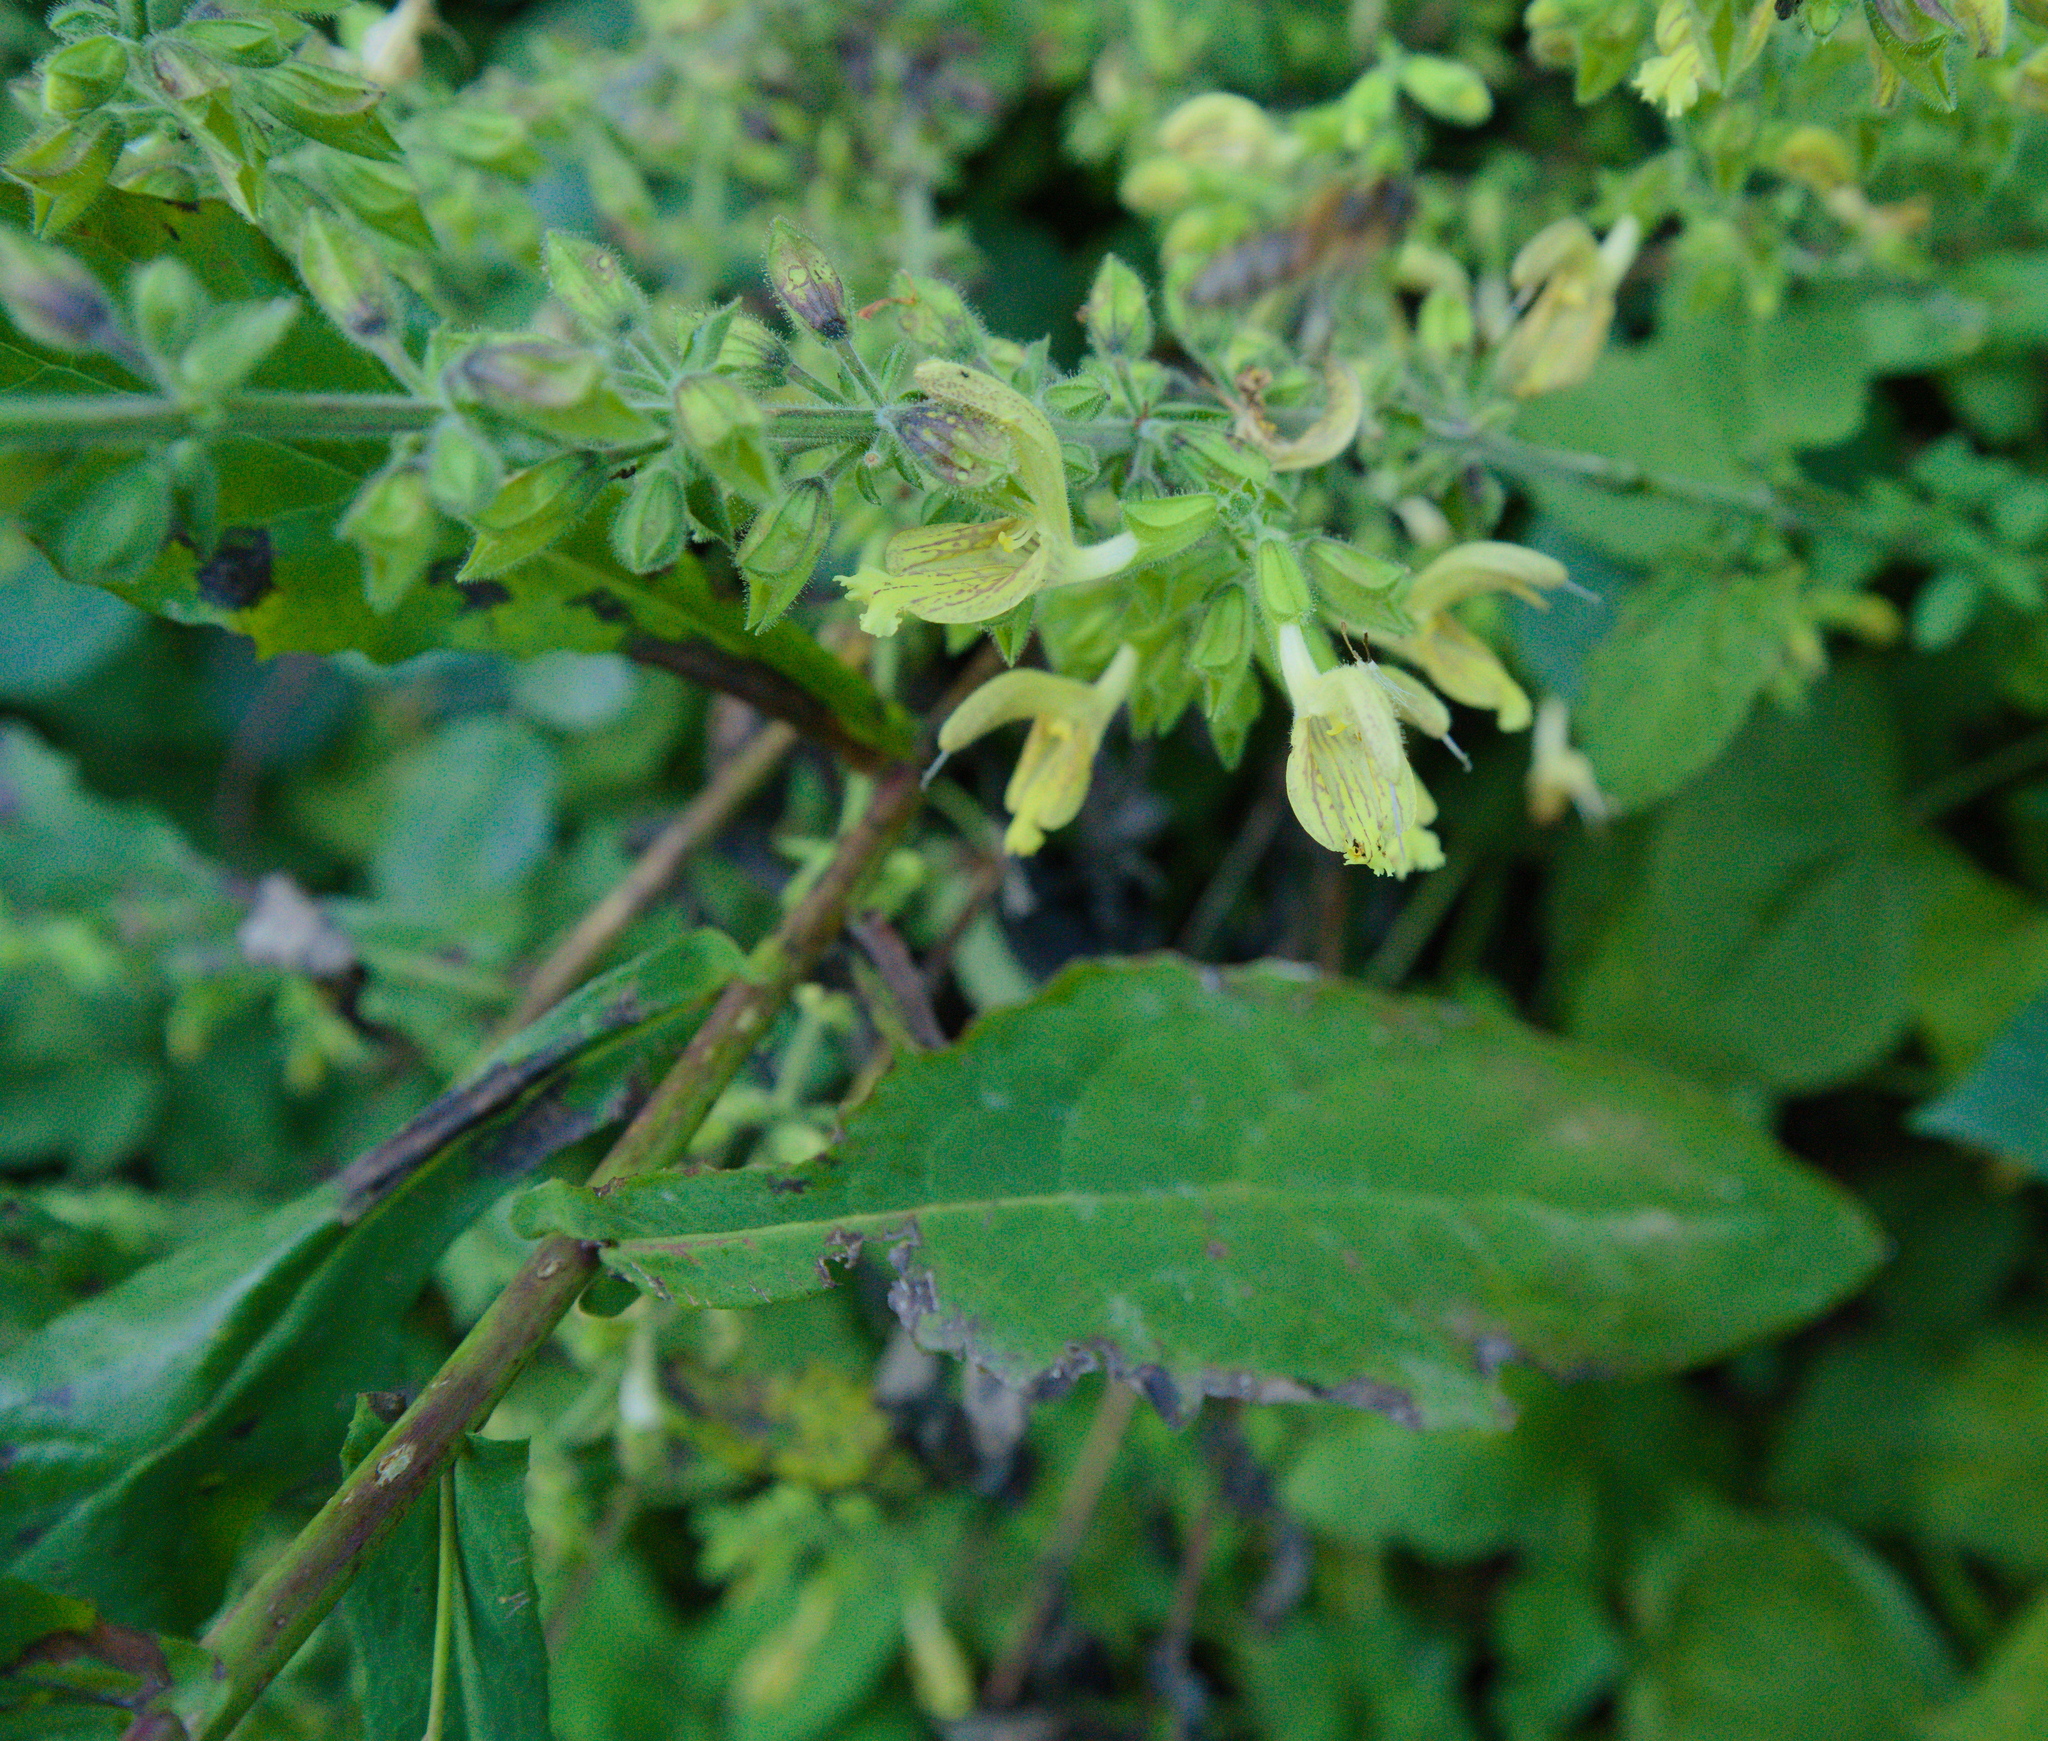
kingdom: Plantae
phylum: Tracheophyta
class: Magnoliopsida
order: Lamiales
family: Lamiaceae
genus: Salvia
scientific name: Salvia glutinosa
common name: Sticky clary
